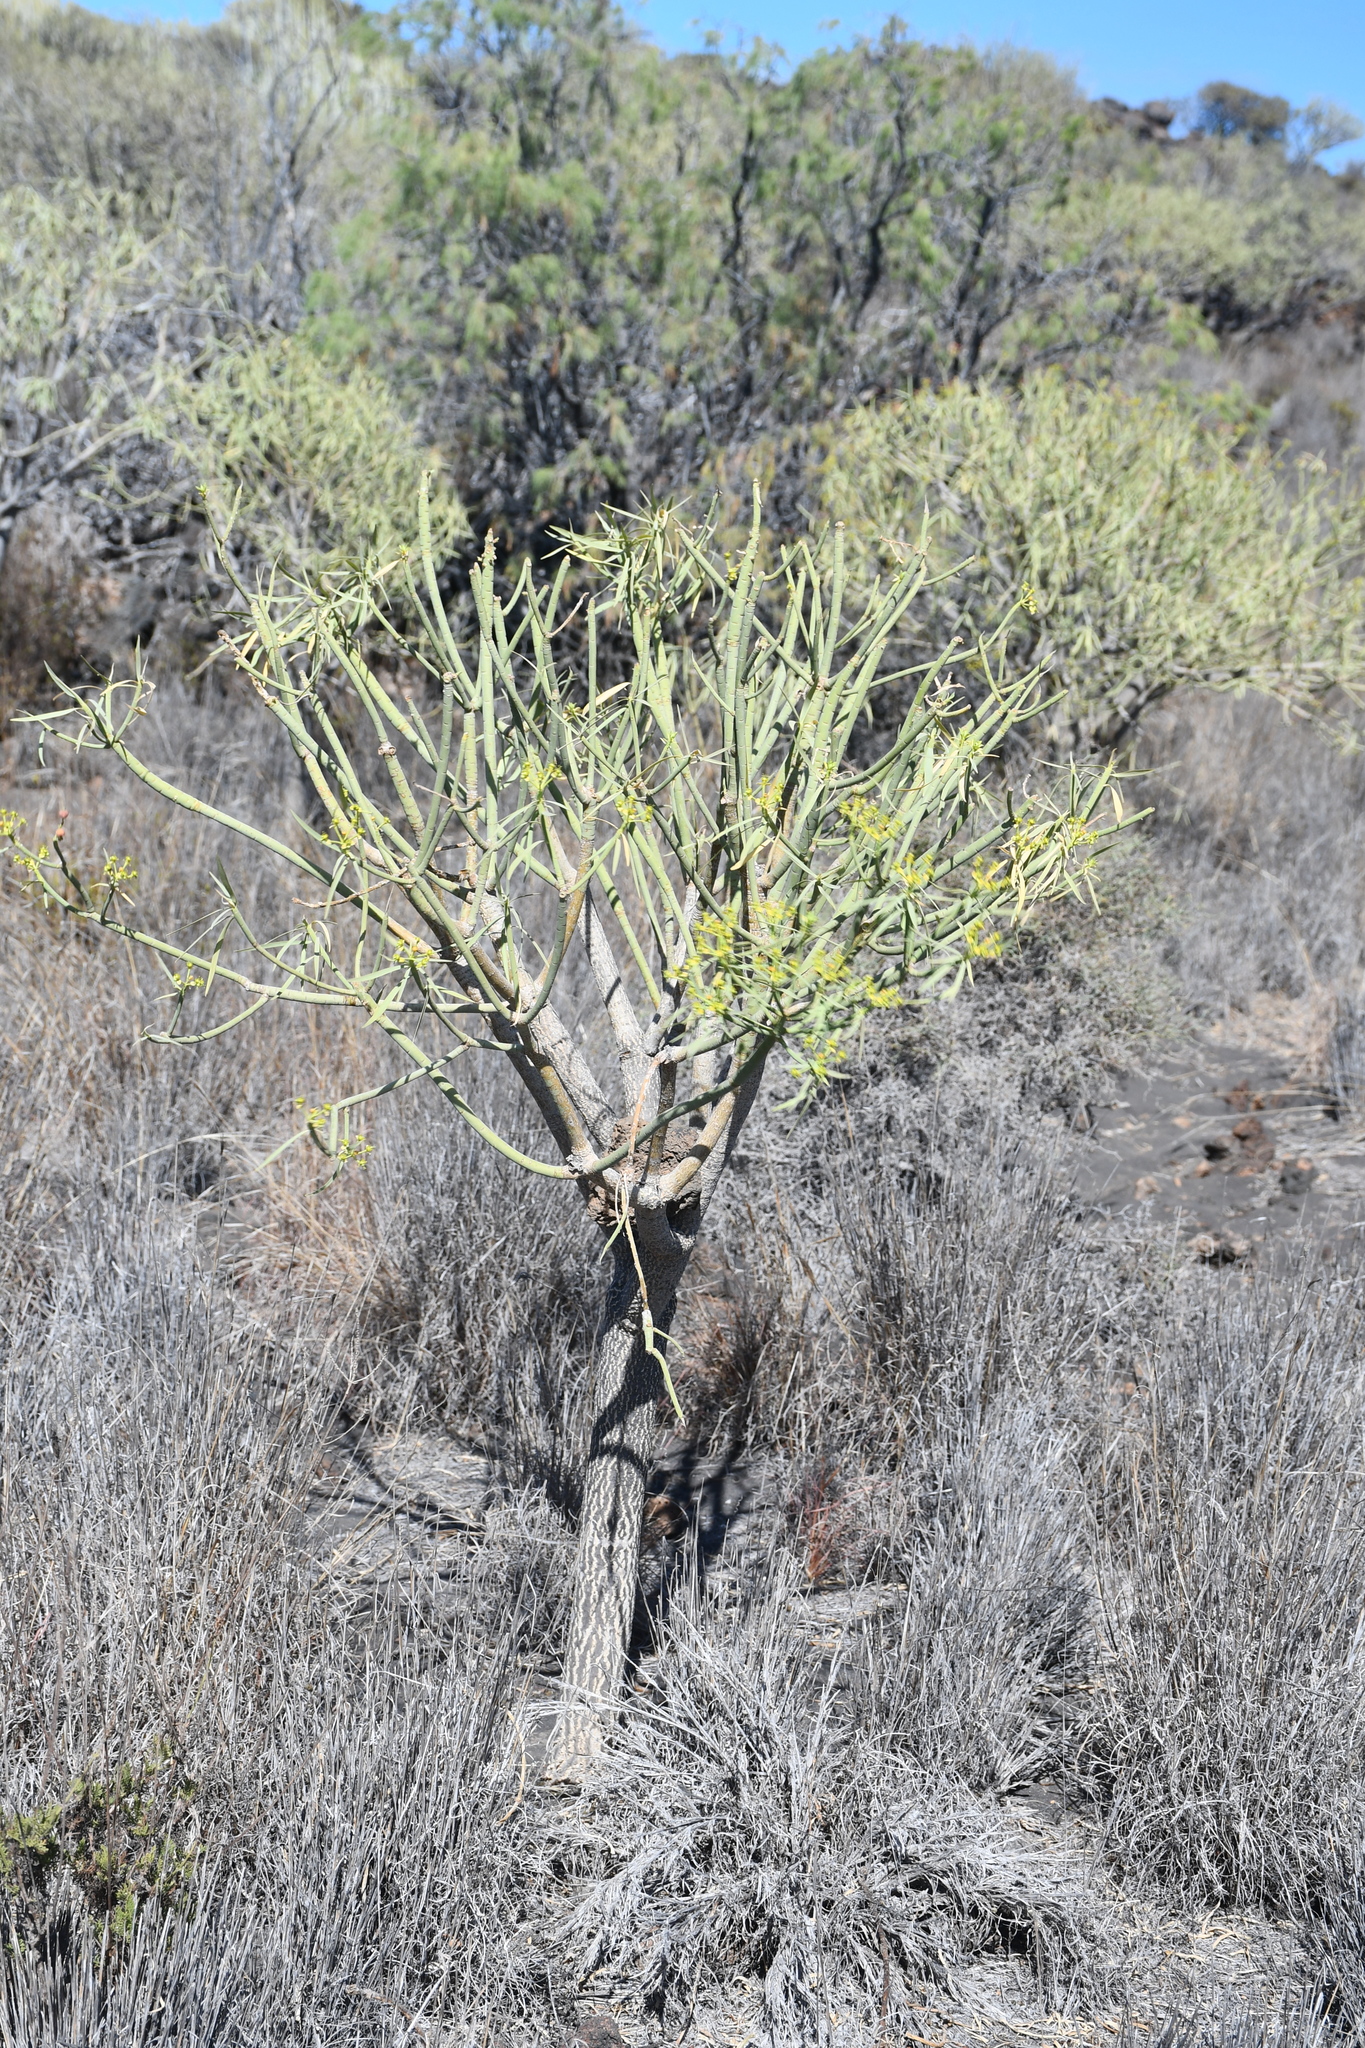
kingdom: Plantae
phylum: Tracheophyta
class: Magnoliopsida
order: Malpighiales
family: Euphorbiaceae
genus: Euphorbia
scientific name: Euphorbia lamarckii
